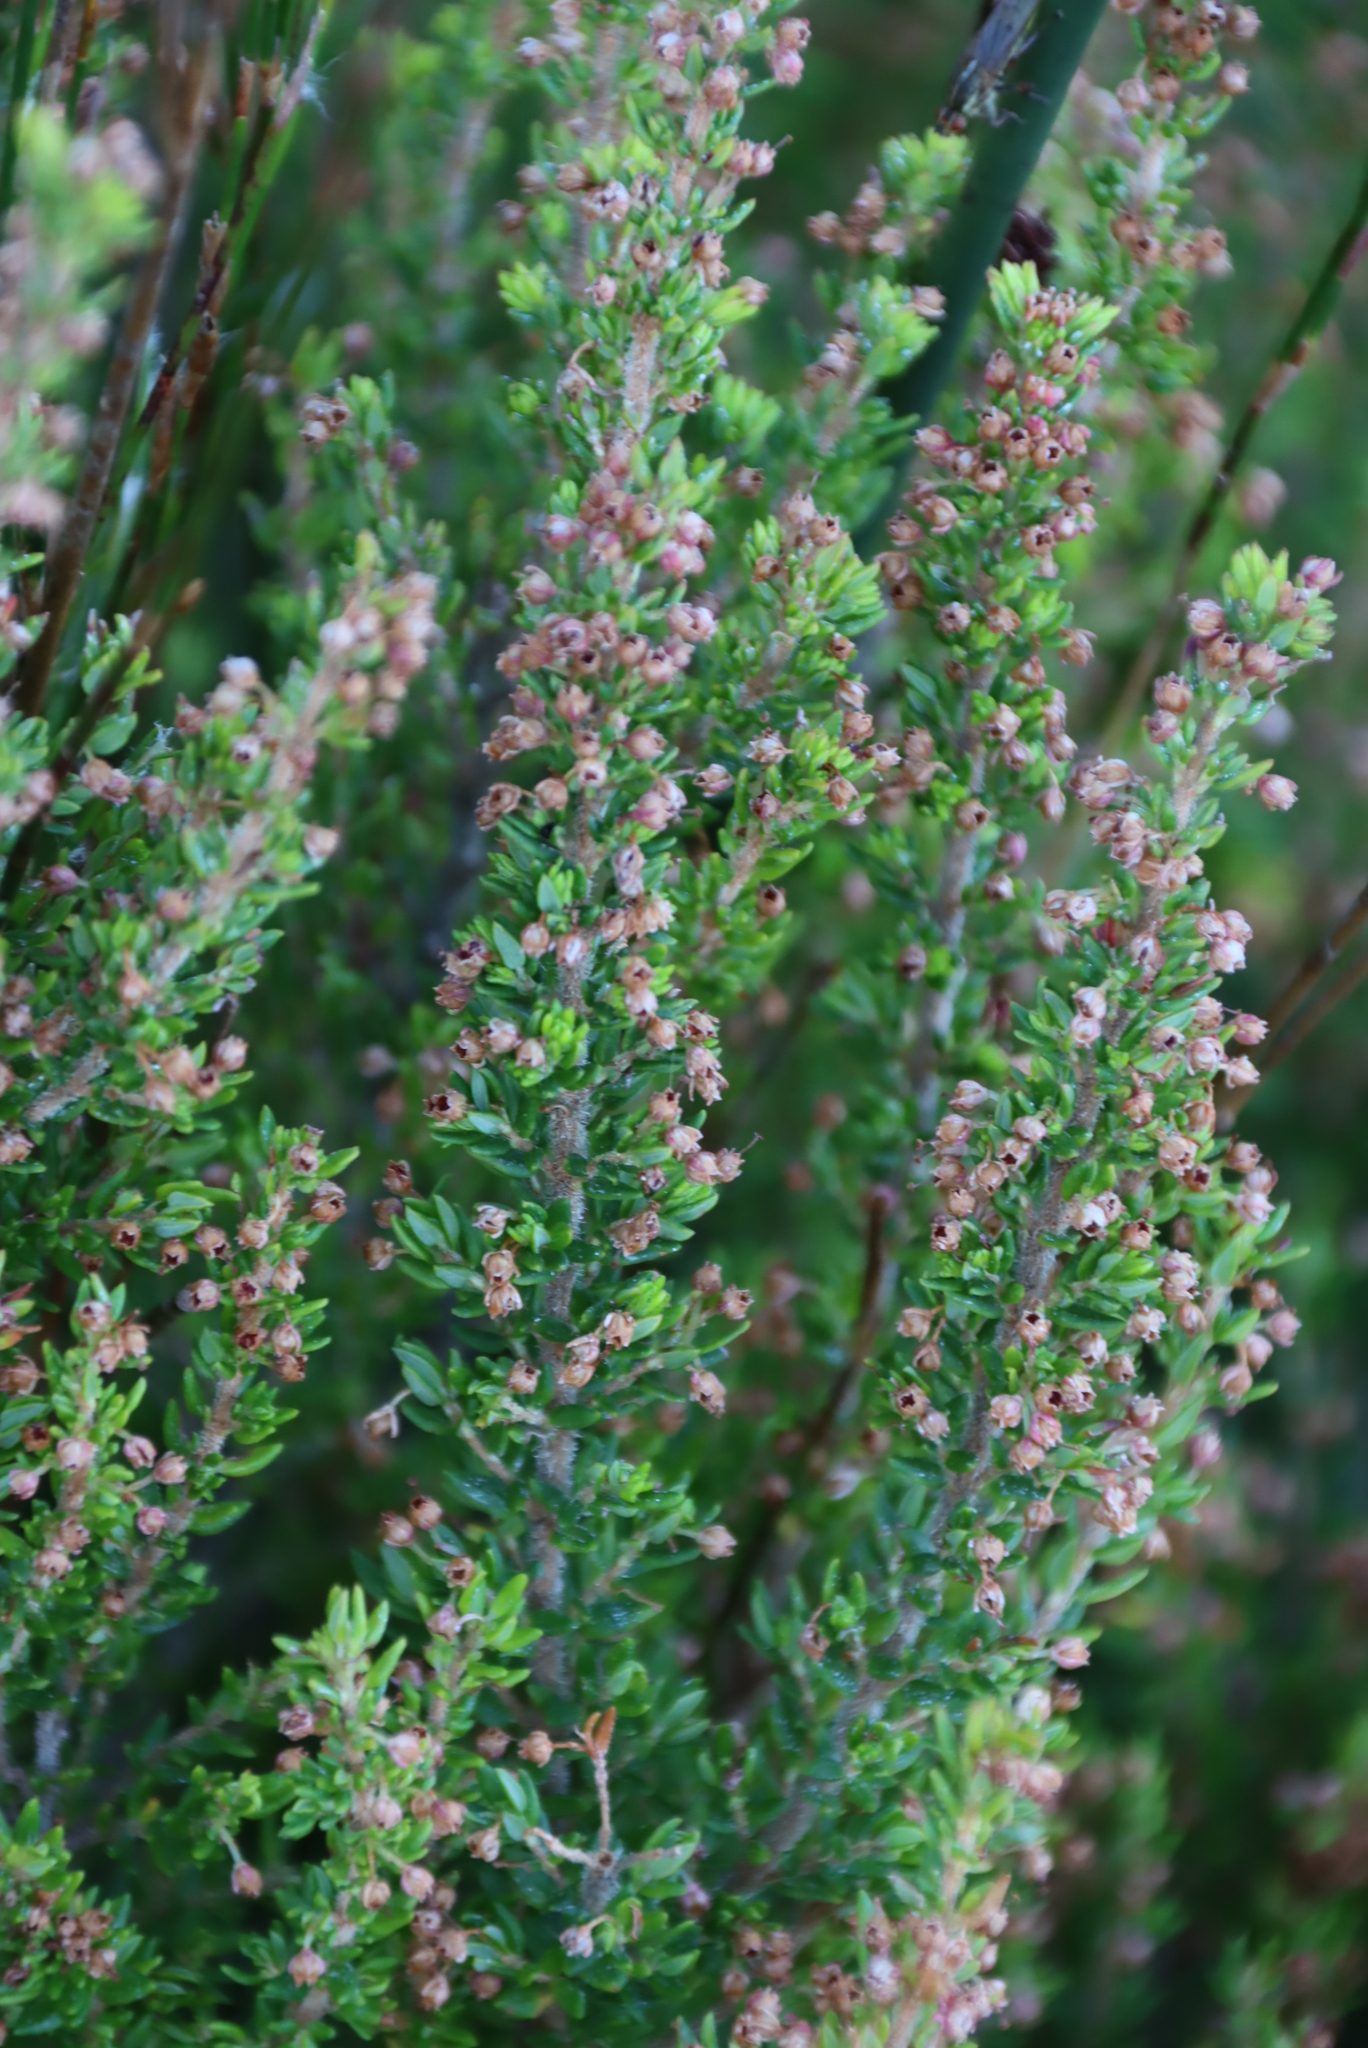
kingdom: Plantae
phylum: Tracheophyta
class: Magnoliopsida
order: Ericales
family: Ericaceae
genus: Erica
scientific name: Erica hispidula
